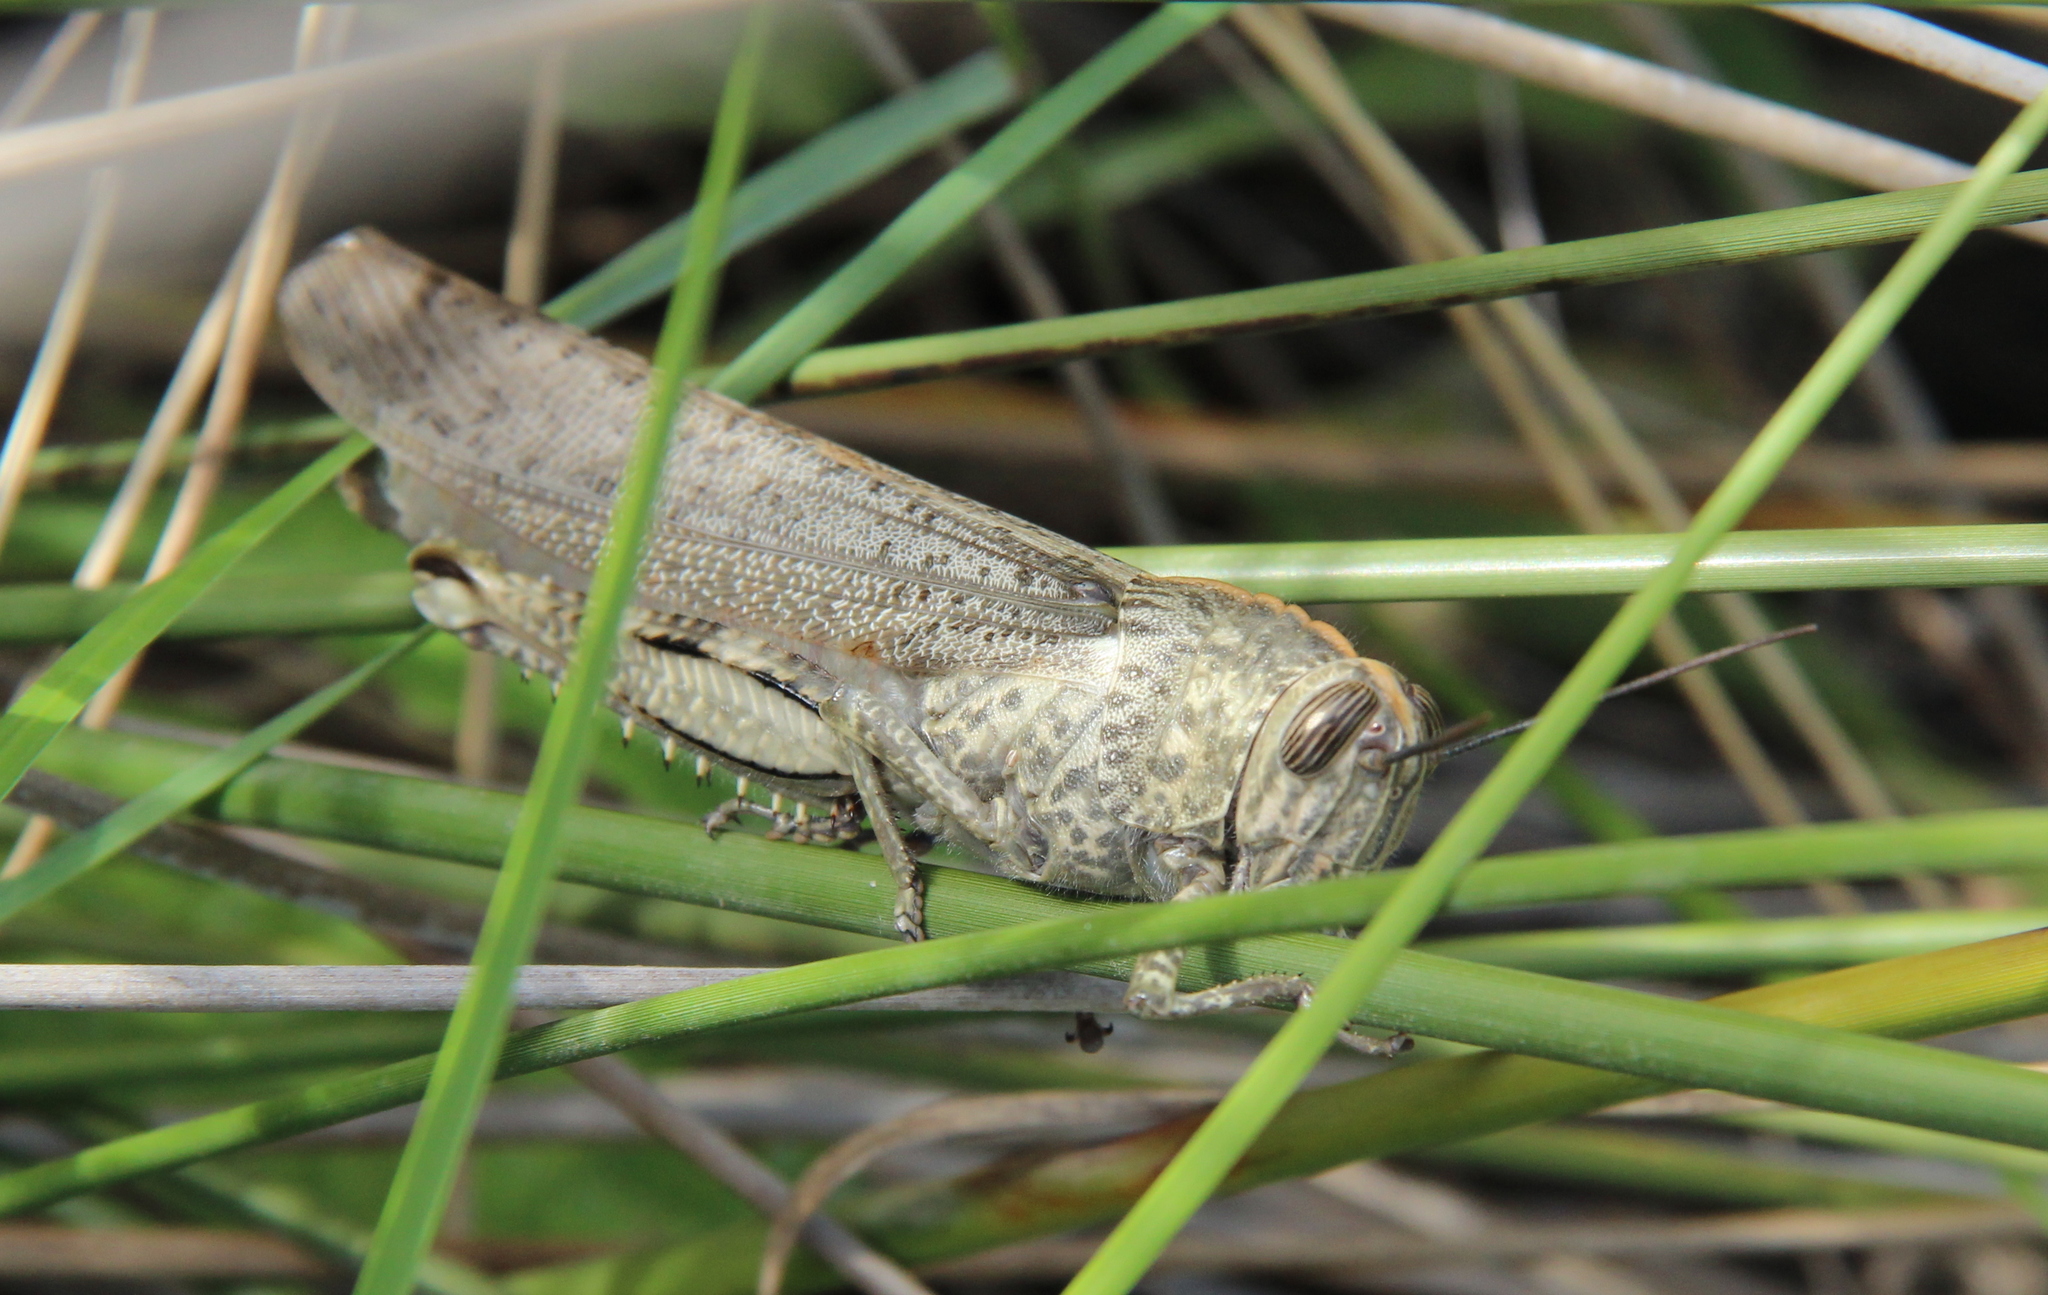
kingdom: Animalia
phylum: Arthropoda
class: Insecta
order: Orthoptera
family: Acrididae
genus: Anacridium
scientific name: Anacridium aegyptium
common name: Egyptian grasshopper
